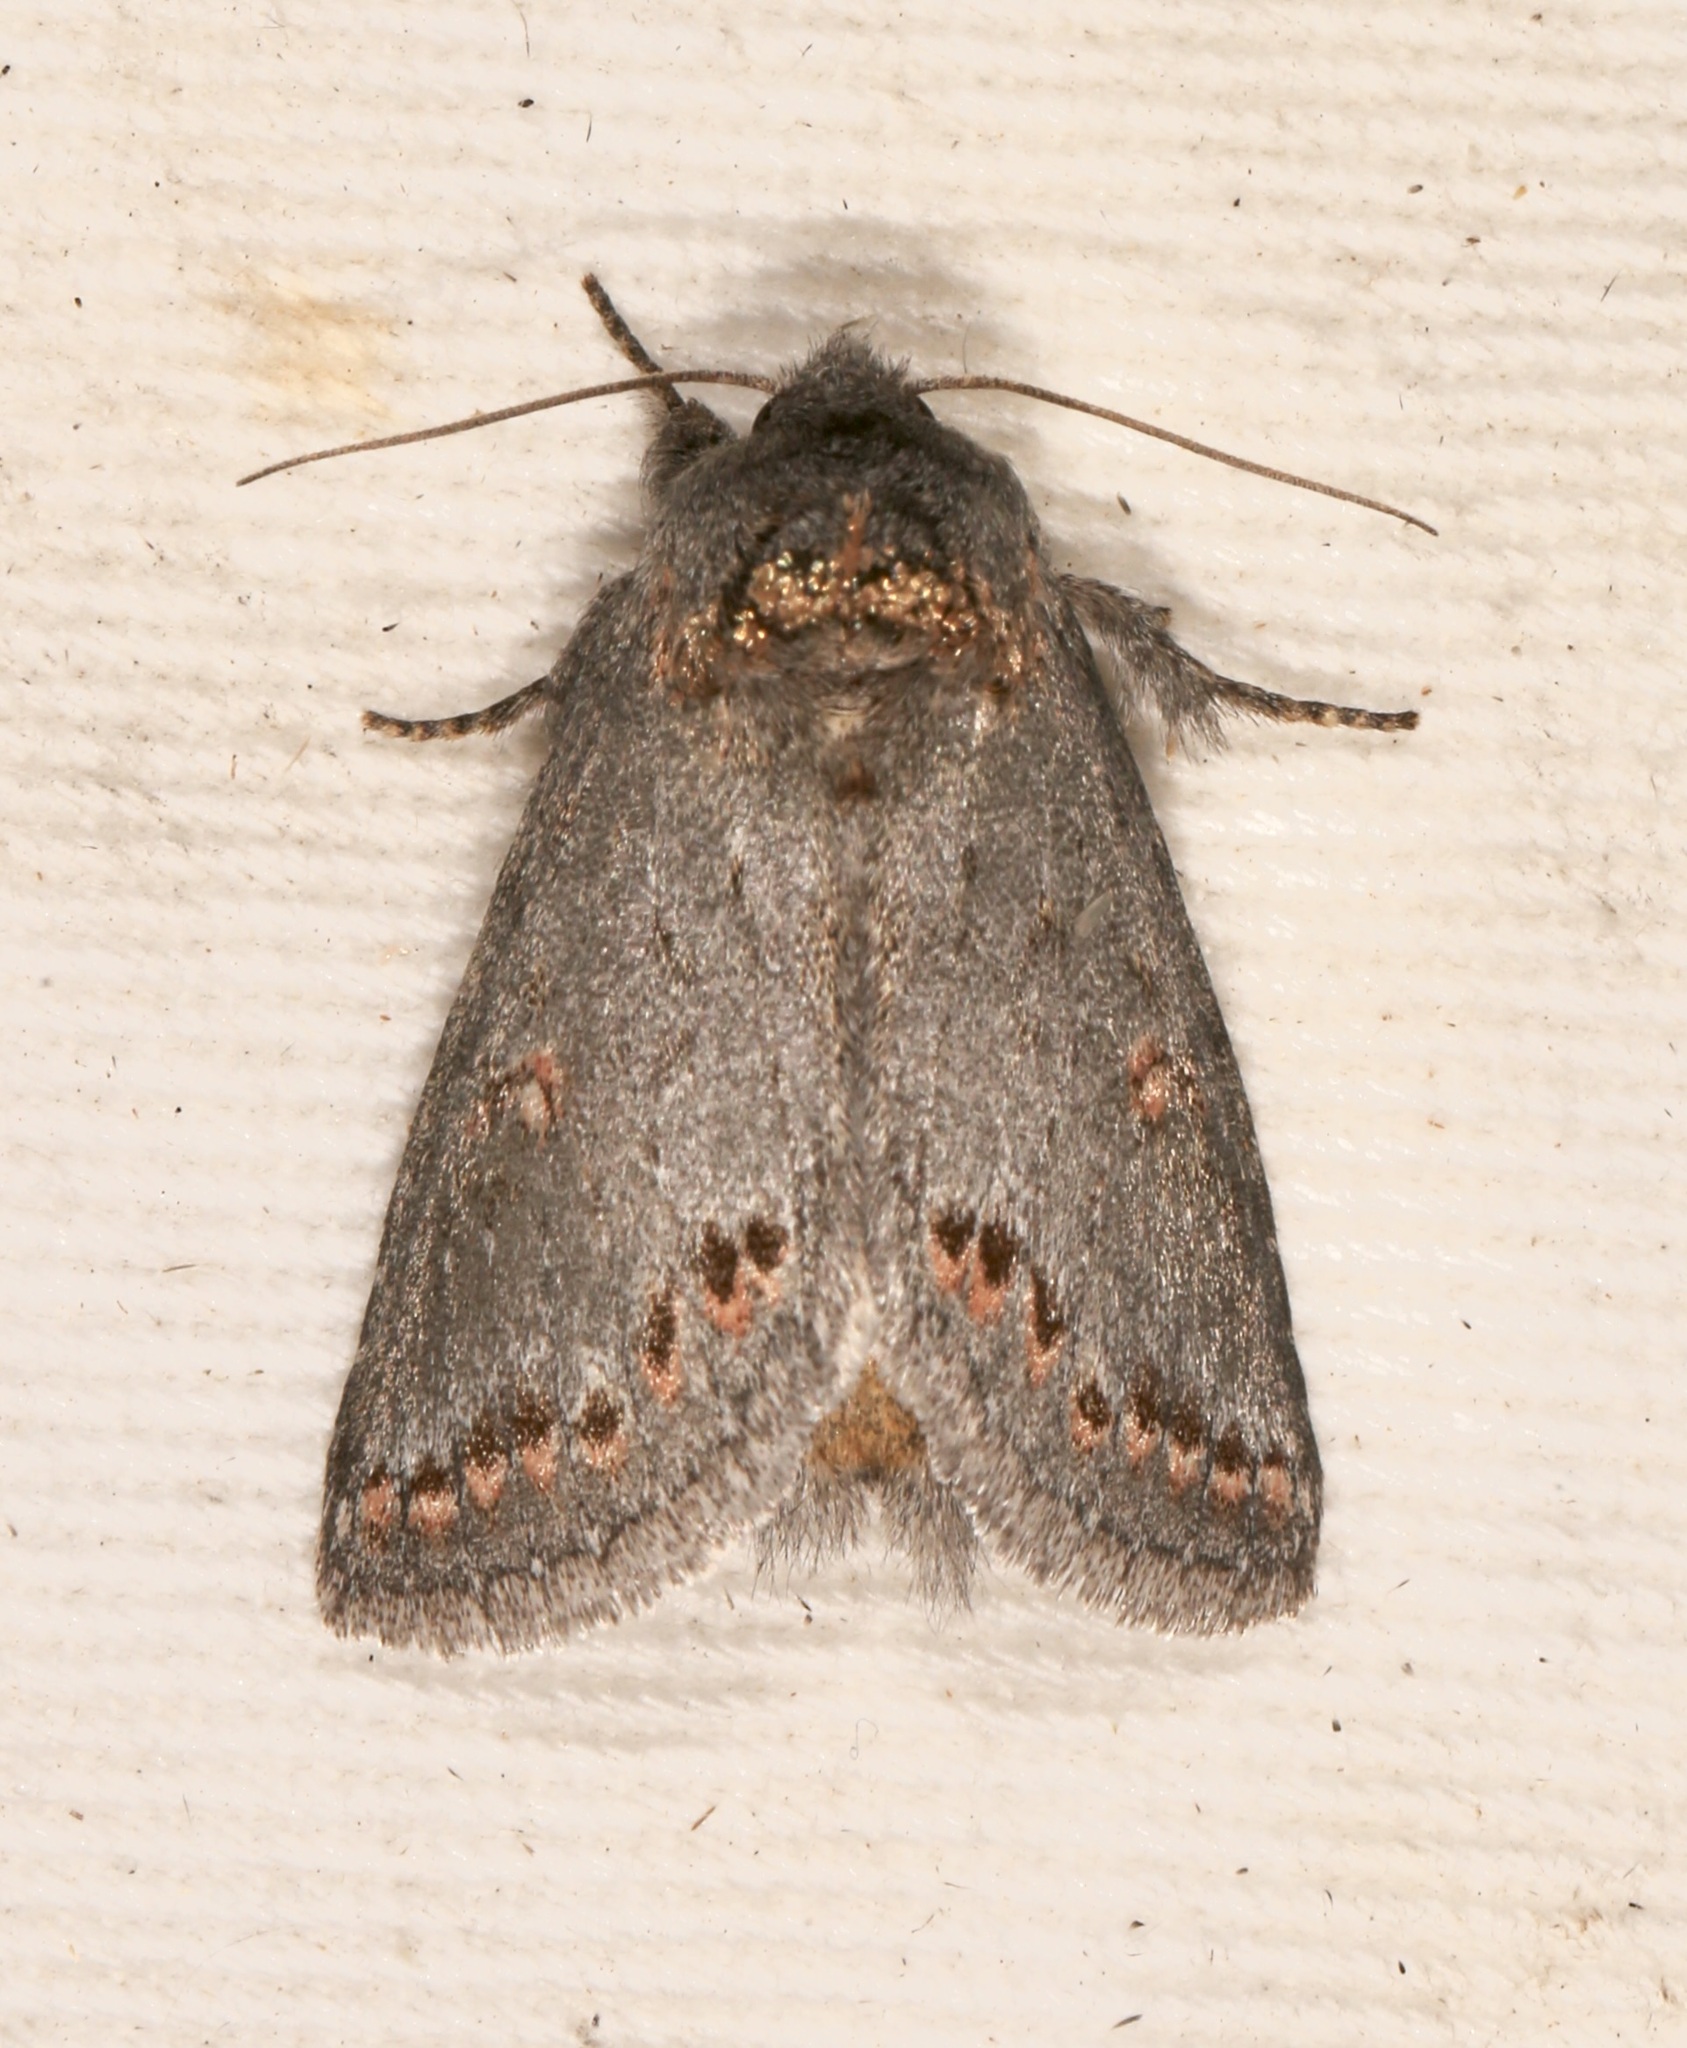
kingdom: Animalia
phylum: Arthropoda
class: Insecta
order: Lepidoptera
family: Notodontidae
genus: Theroa
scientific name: Theroa zethus
